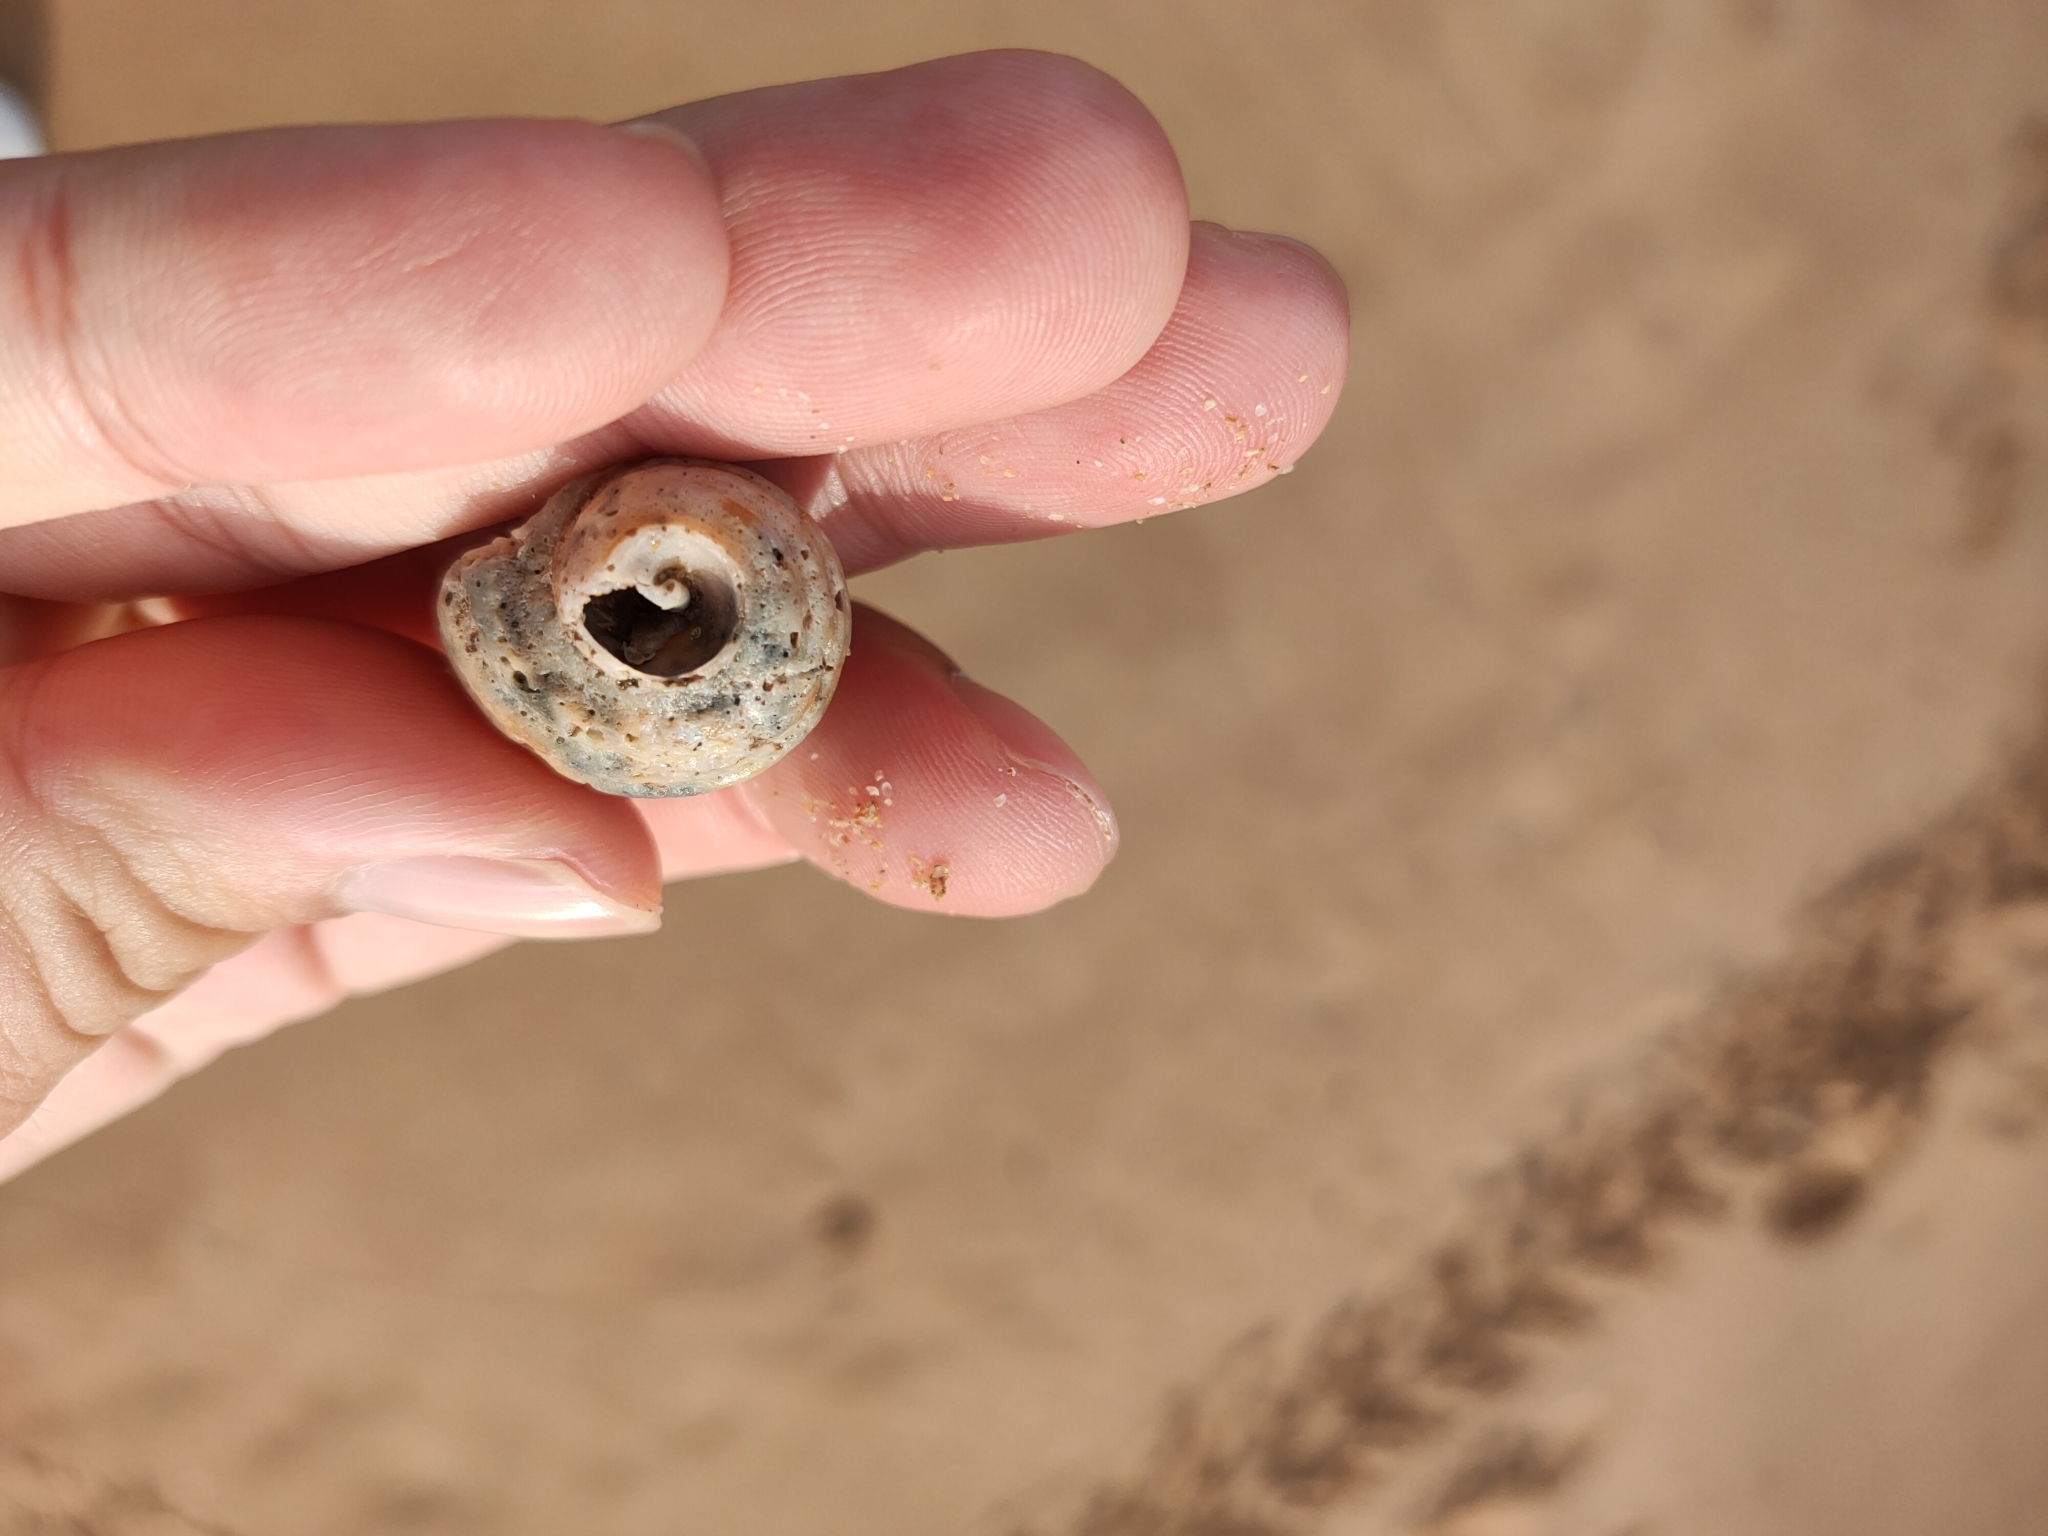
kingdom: Animalia
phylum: Mollusca
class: Gastropoda
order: Neogastropoda
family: Muricidae
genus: Dicathais
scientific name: Dicathais orbita
